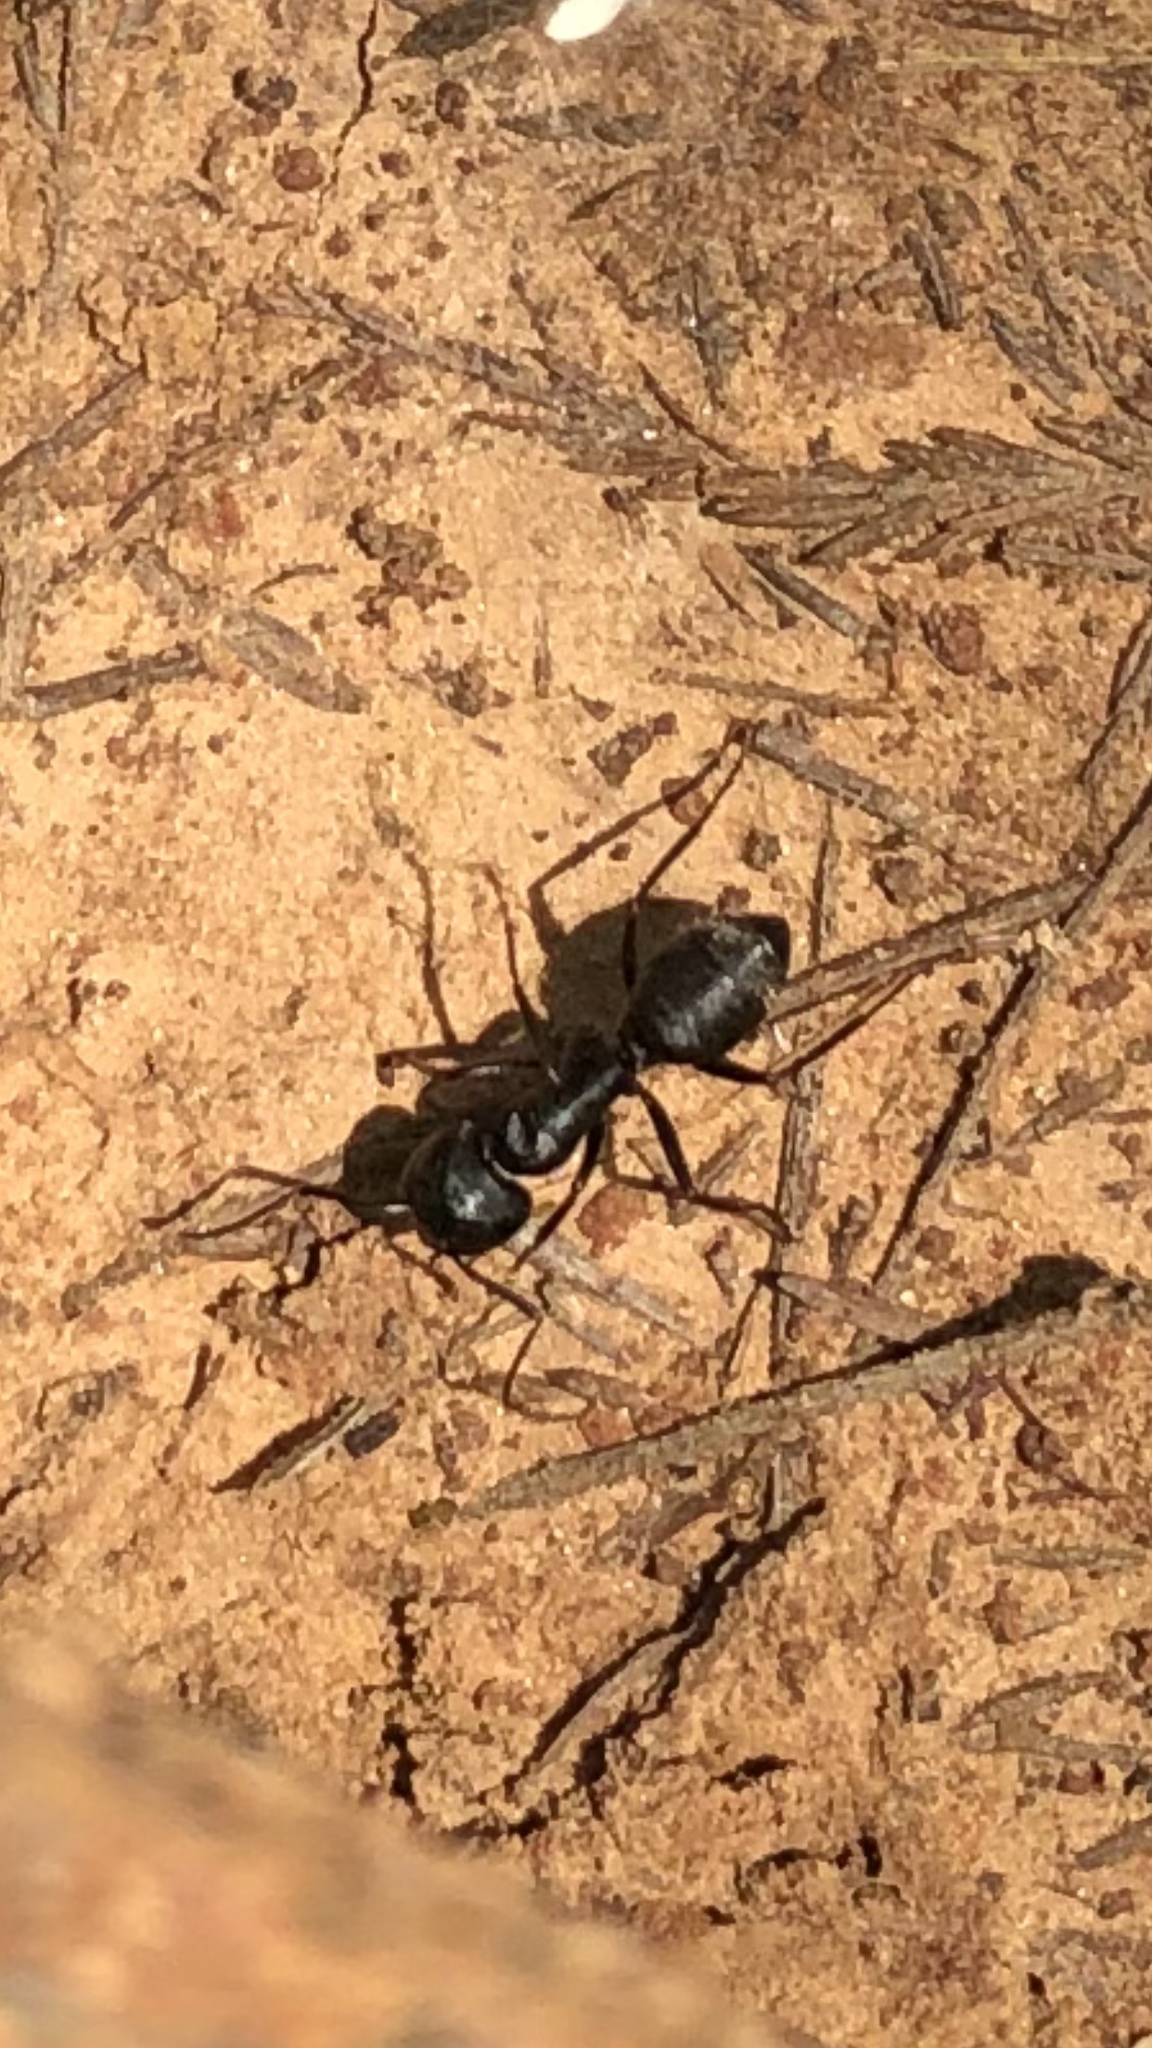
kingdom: Animalia
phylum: Arthropoda
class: Insecta
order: Hymenoptera
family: Formicidae
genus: Camponotus
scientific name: Camponotus pennsylvanicus
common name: Black carpenter ant
